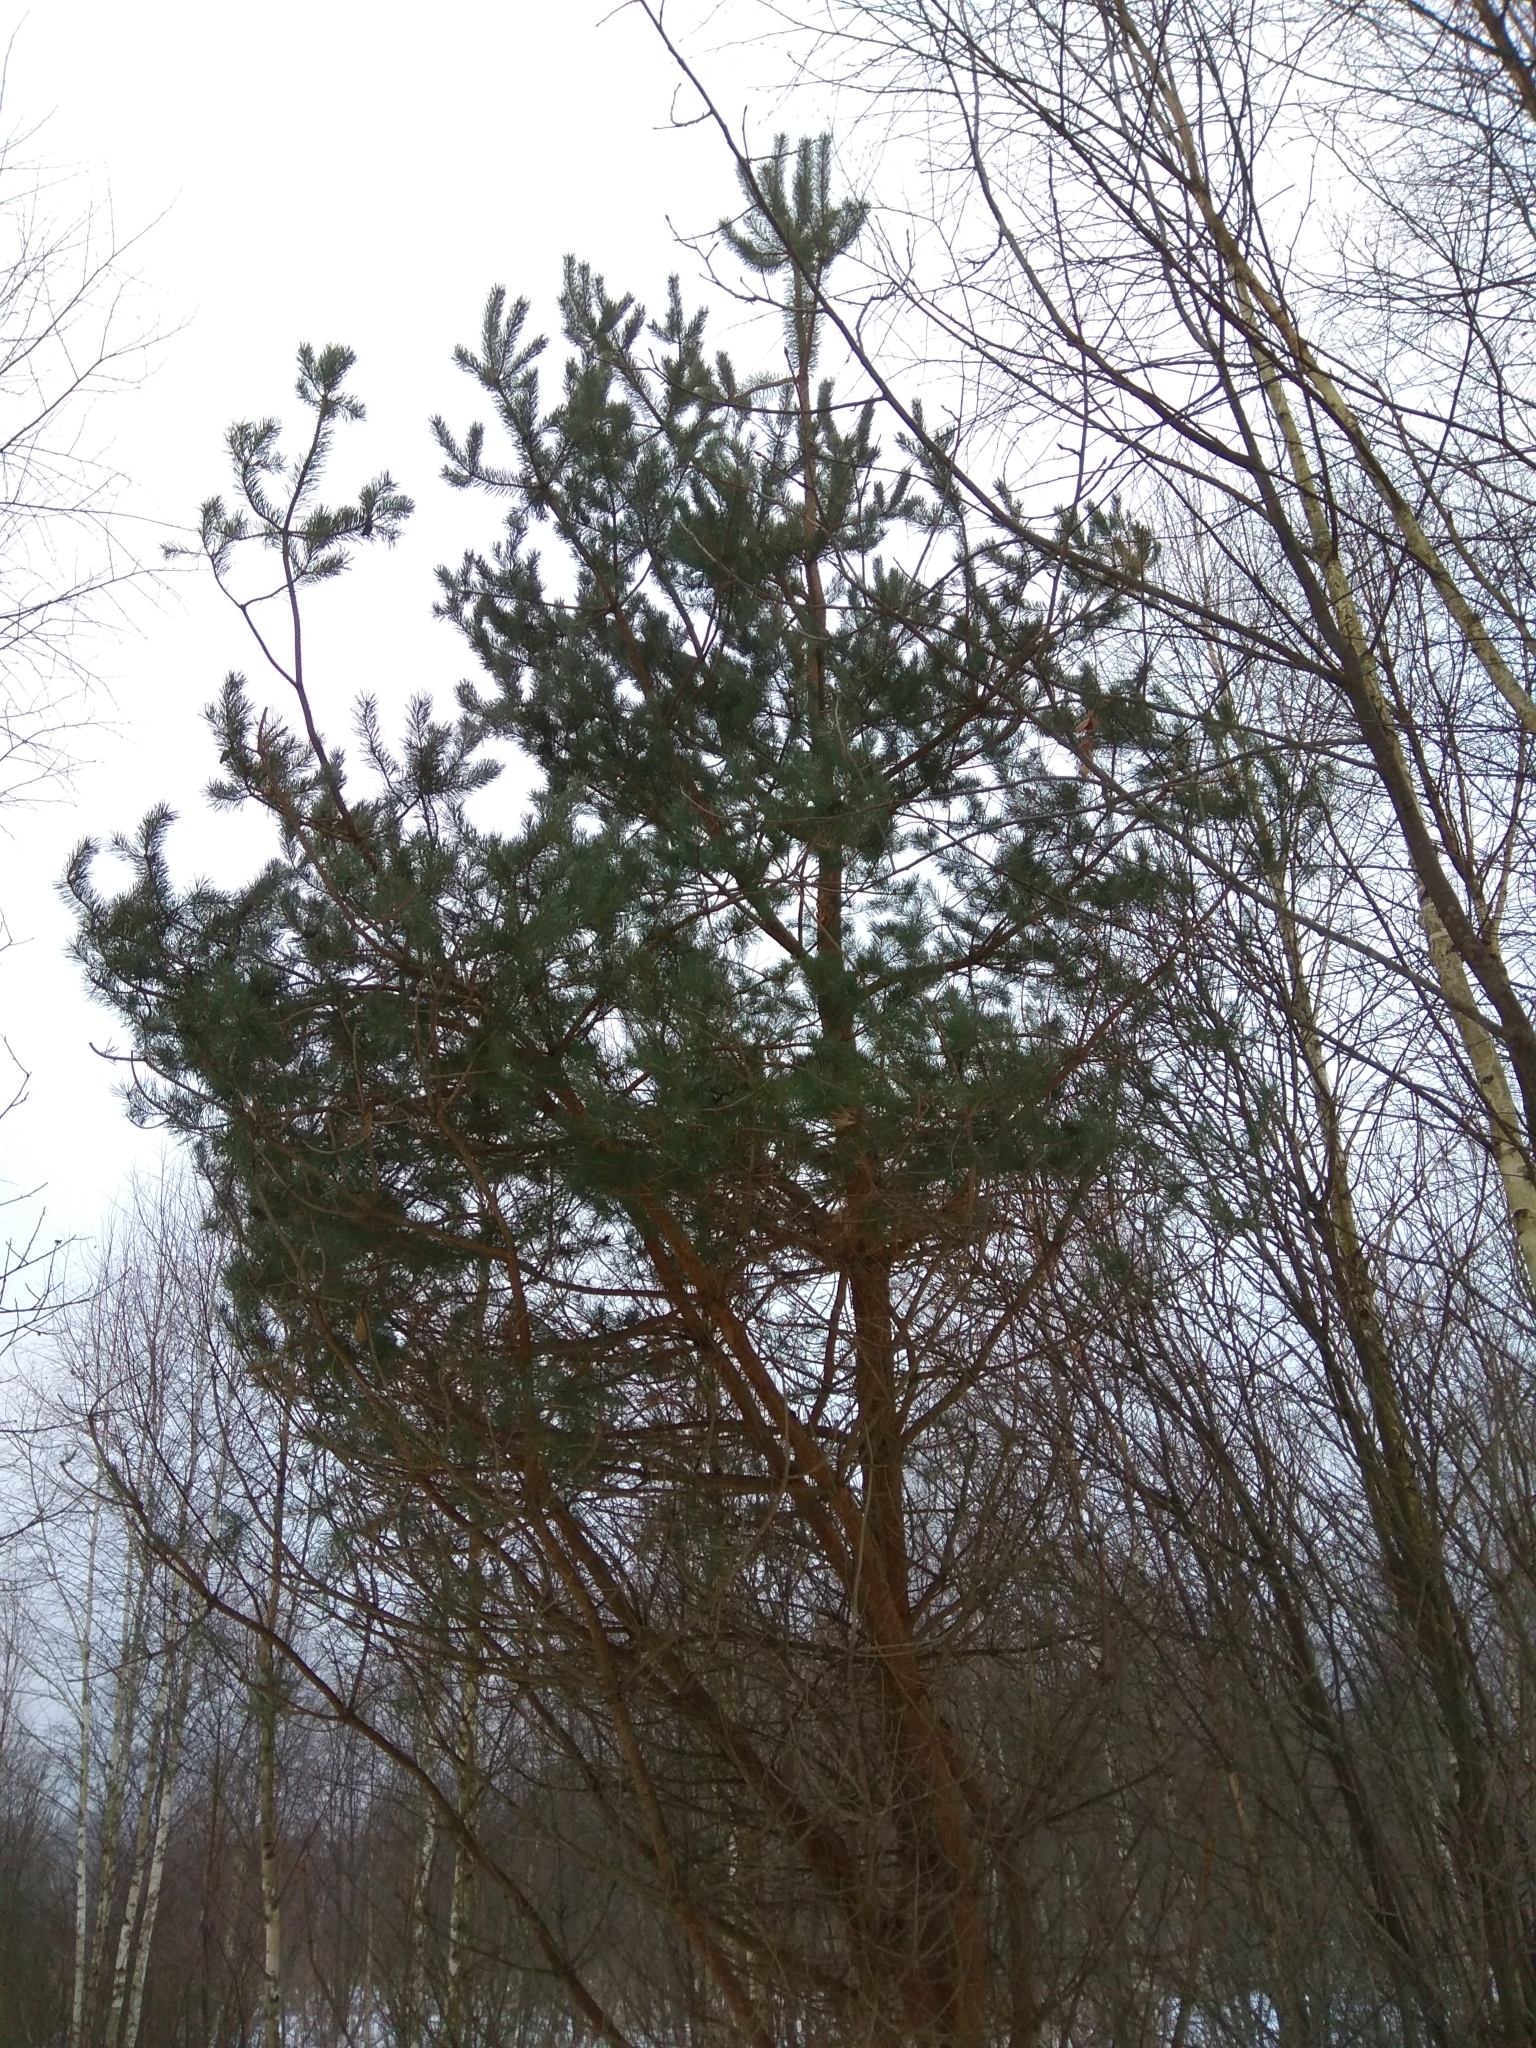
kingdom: Plantae
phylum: Tracheophyta
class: Pinopsida
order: Pinales
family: Pinaceae
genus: Pinus
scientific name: Pinus sylvestris
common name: Scots pine
